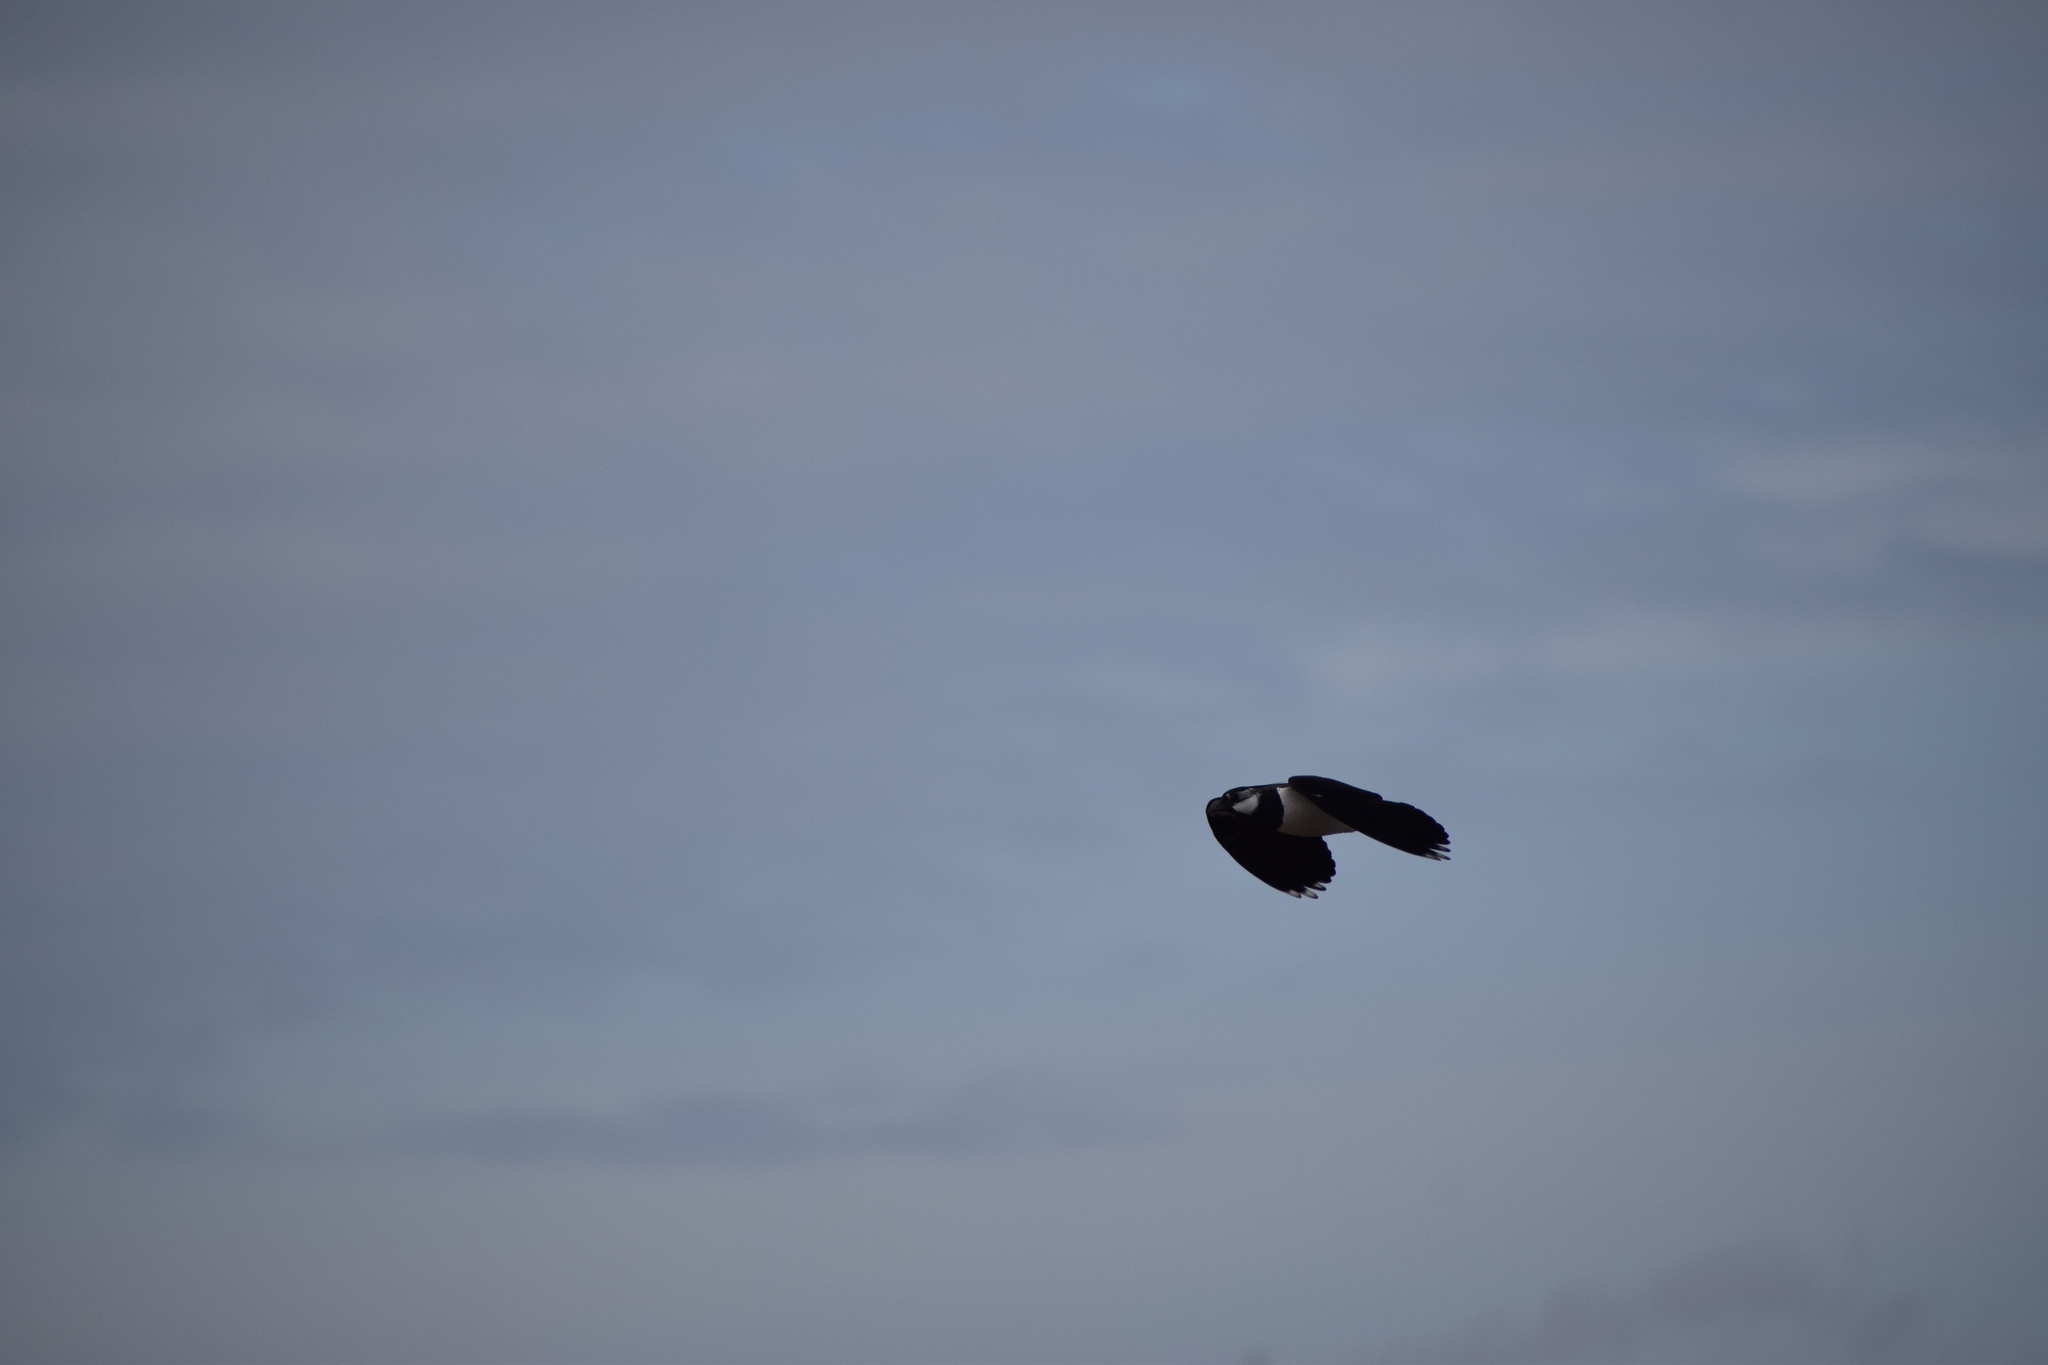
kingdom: Animalia
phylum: Chordata
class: Aves
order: Charadriiformes
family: Charadriidae
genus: Vanellus
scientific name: Vanellus vanellus
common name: Northern lapwing
